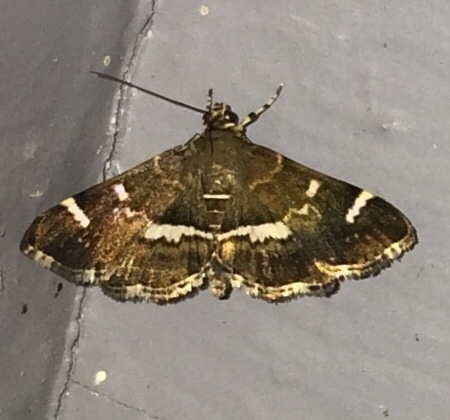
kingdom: Animalia
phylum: Arthropoda
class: Insecta
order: Lepidoptera
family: Crambidae
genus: Hymenia
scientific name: Hymenia perspectalis
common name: Spotted beet webworm
